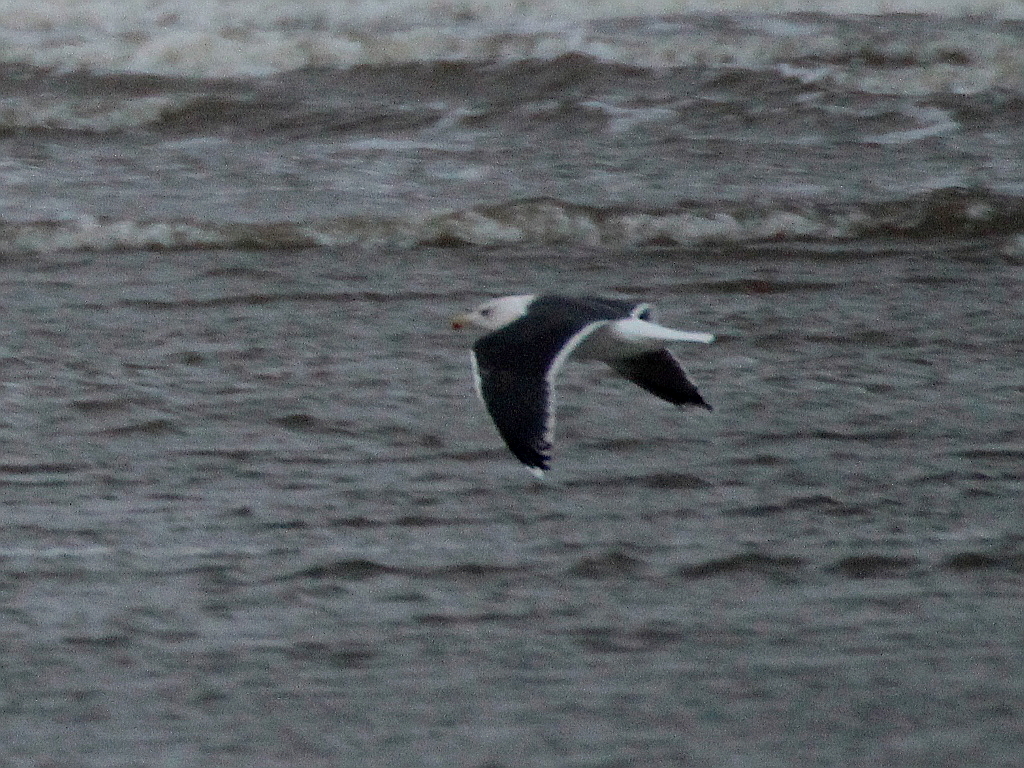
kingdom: Animalia
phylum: Chordata
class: Aves
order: Charadriiformes
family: Laridae
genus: Larus
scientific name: Larus marinus
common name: Great black-backed gull
